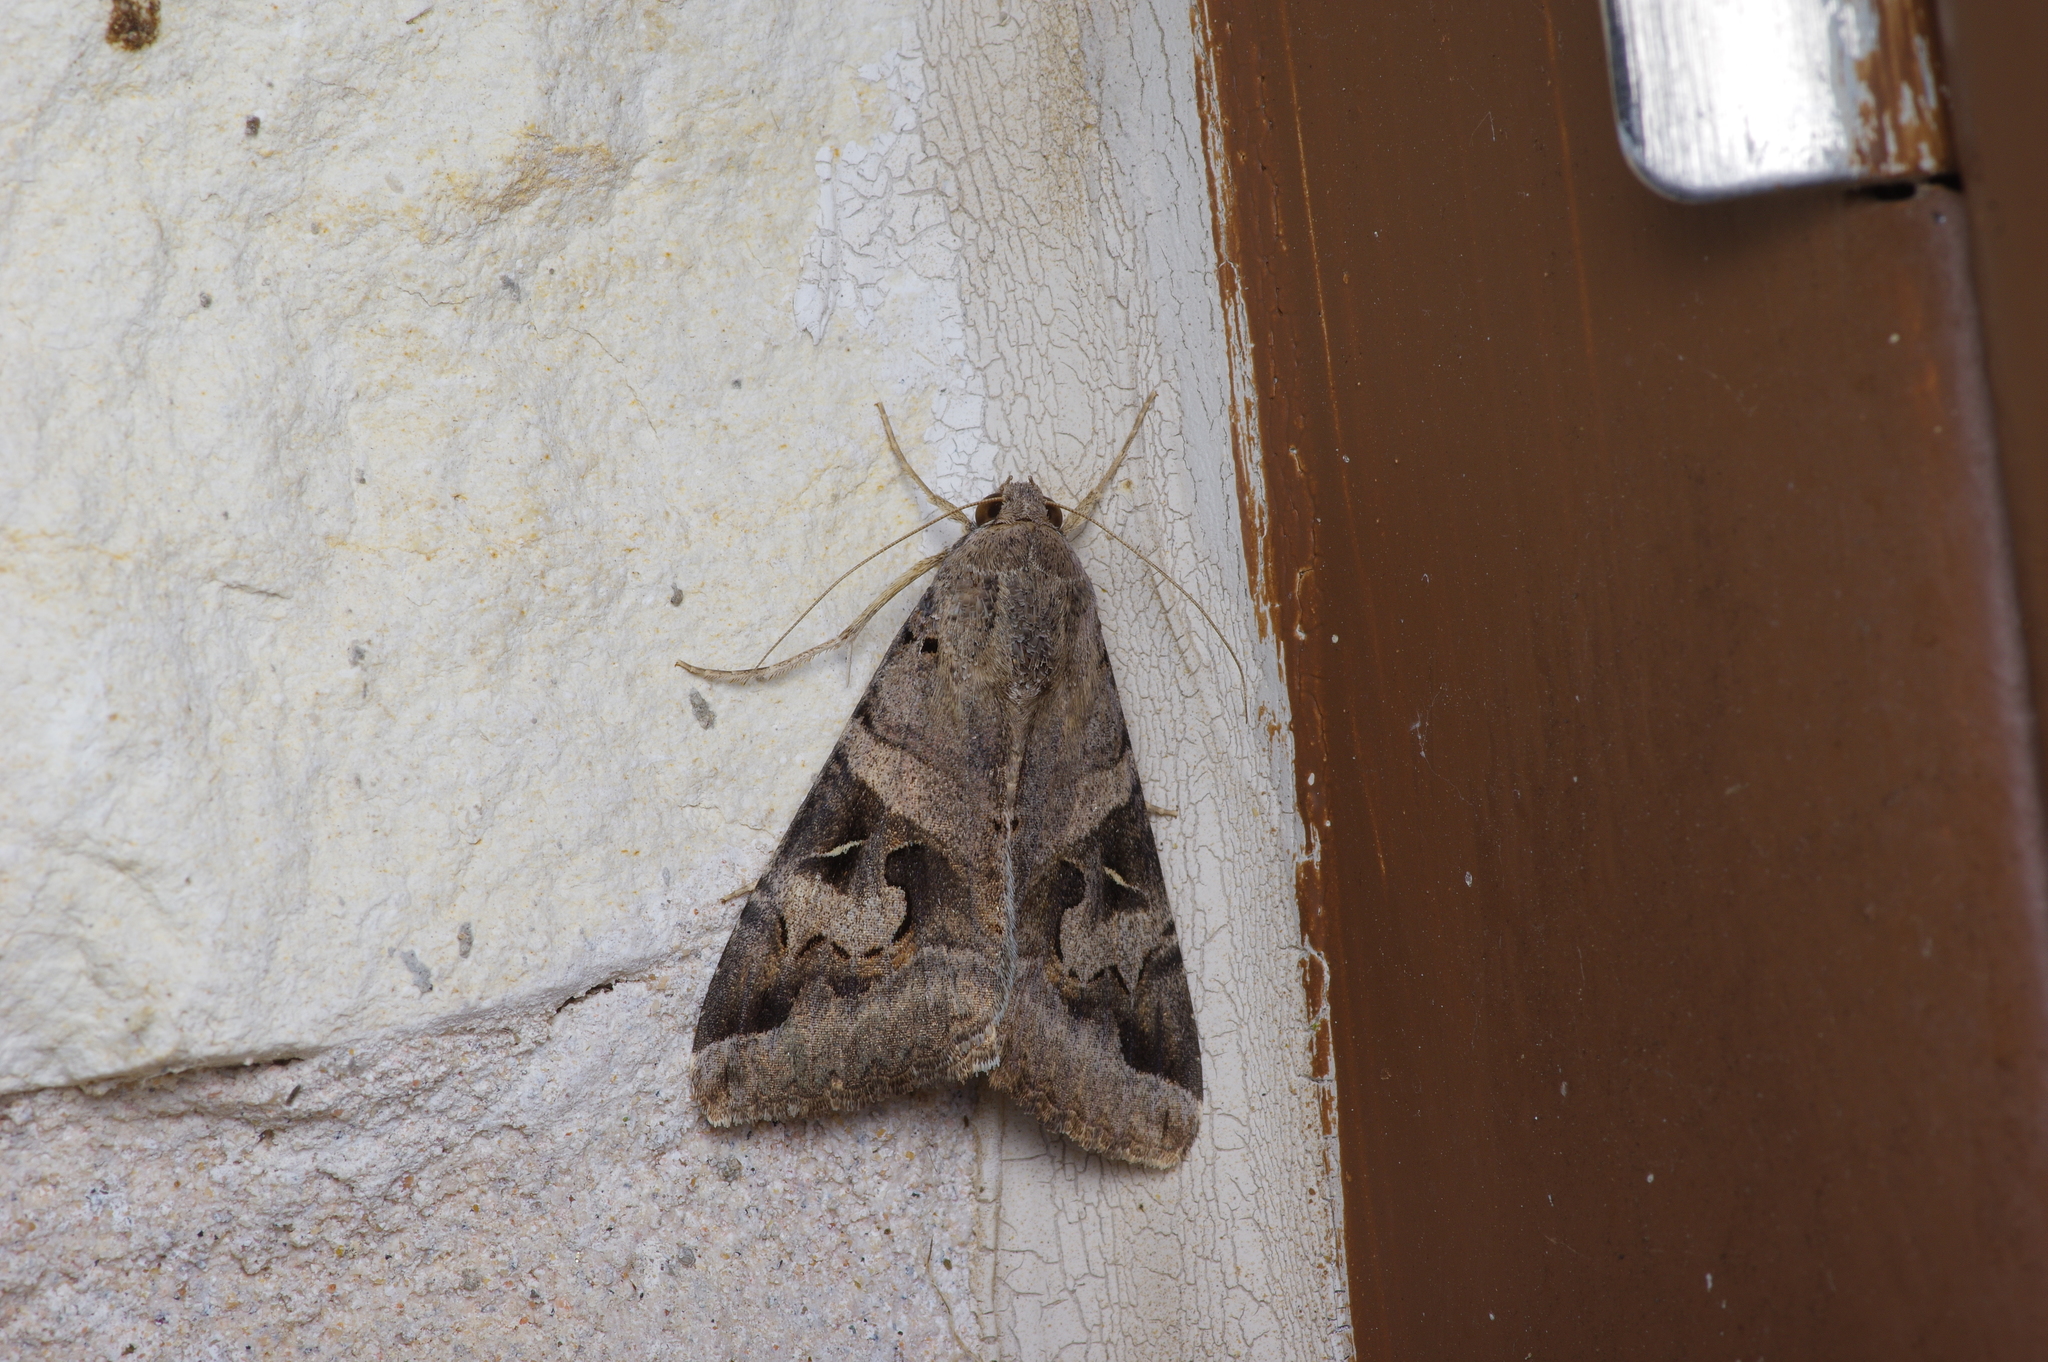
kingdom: Animalia
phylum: Arthropoda
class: Insecta
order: Lepidoptera
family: Erebidae
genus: Melipotis
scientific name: Melipotis indomita
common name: Moth
